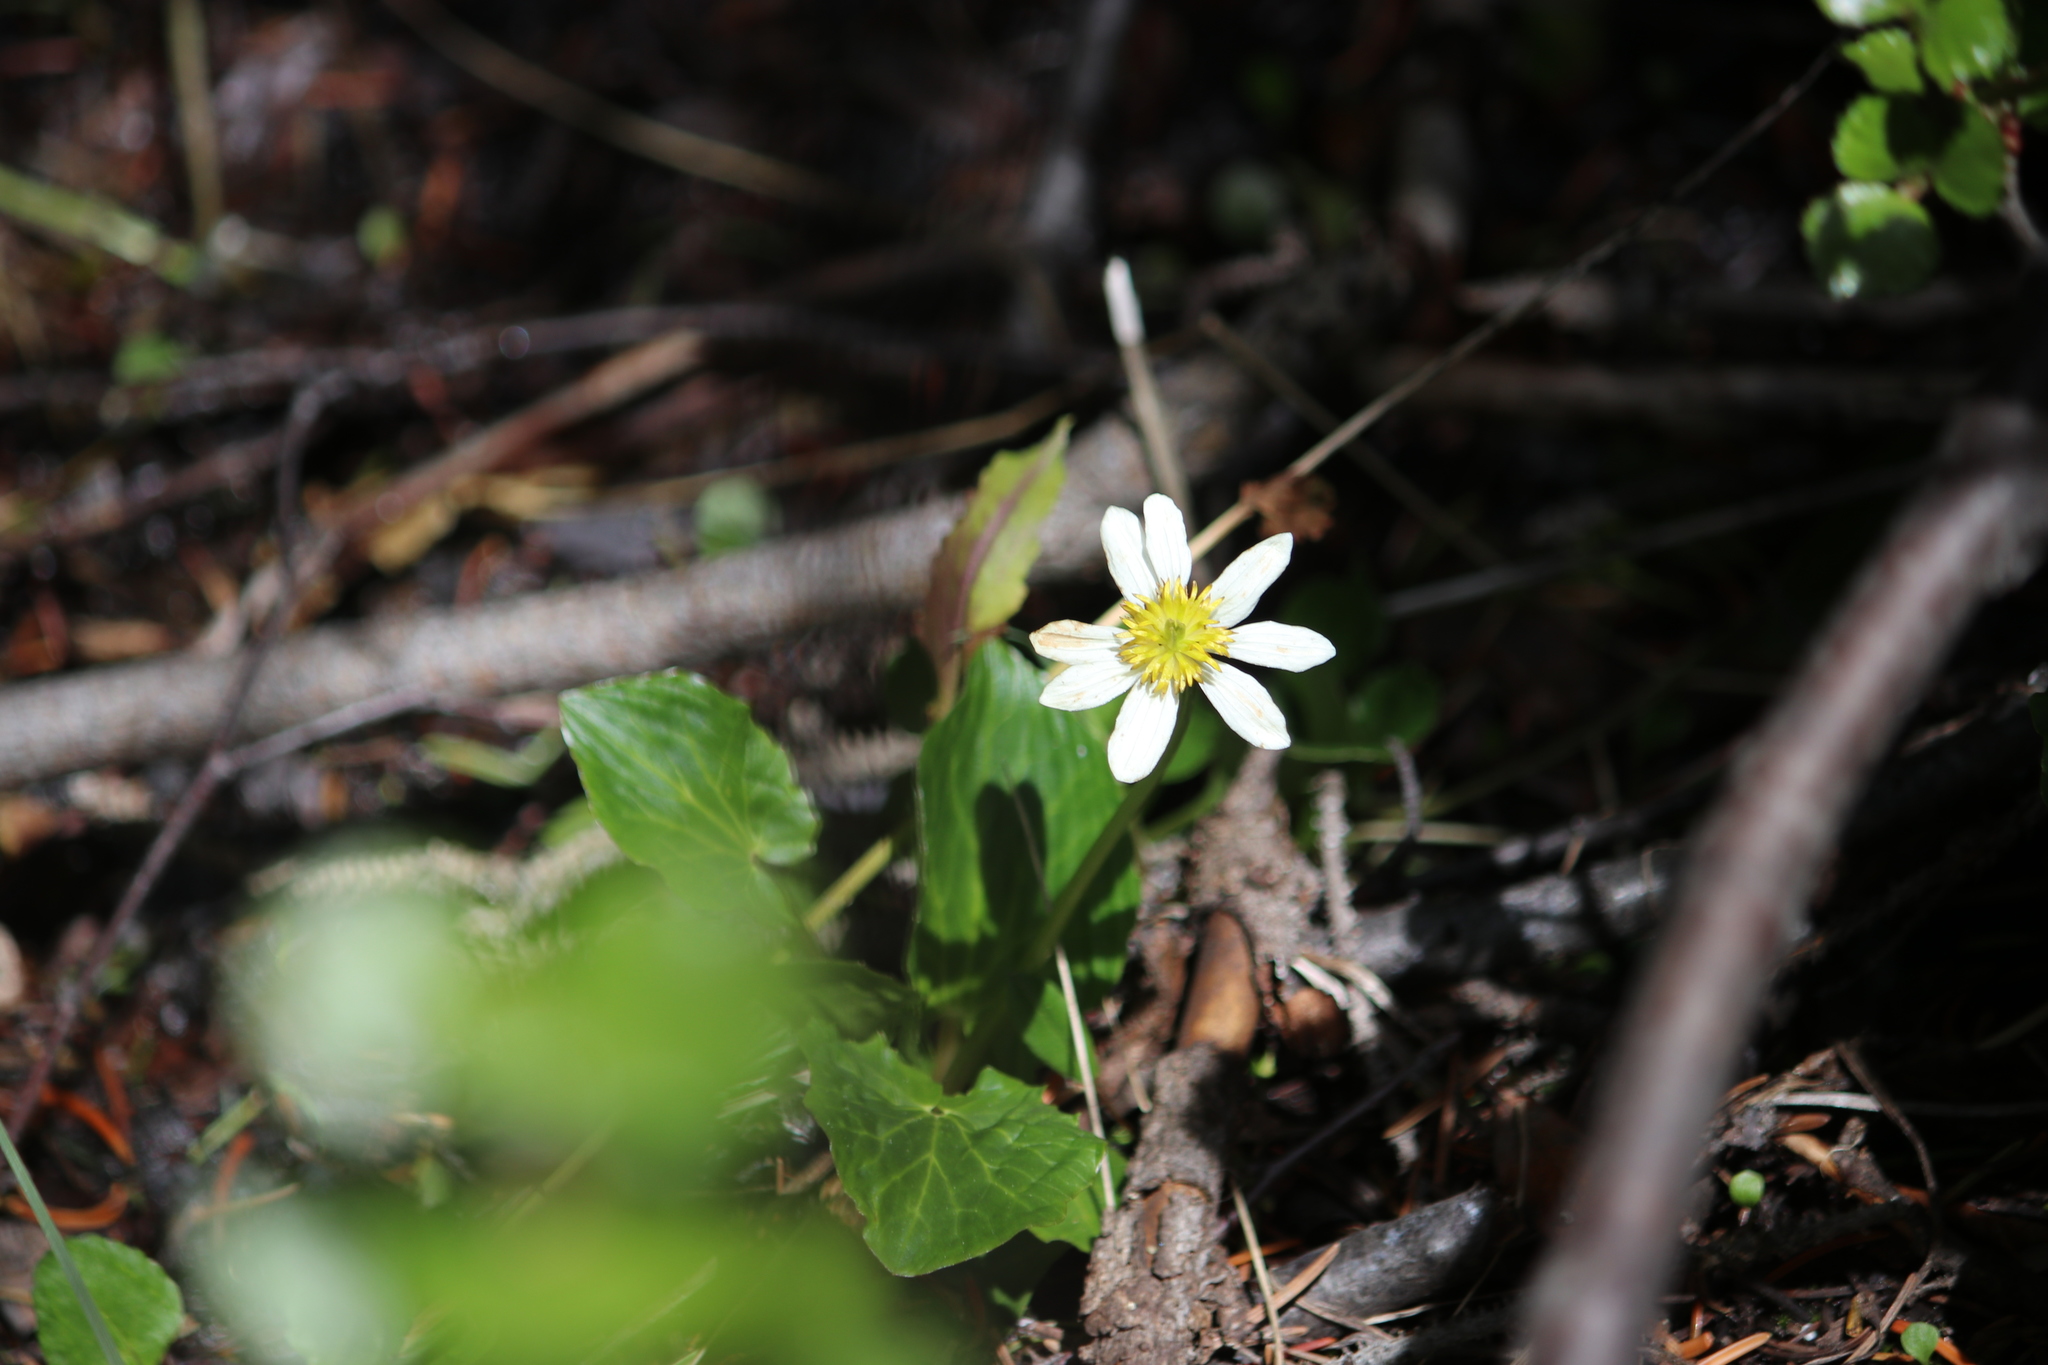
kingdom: Plantae
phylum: Tracheophyta
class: Magnoliopsida
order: Ranunculales
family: Ranunculaceae
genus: Caltha
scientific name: Caltha leptosepala
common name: Elkslip
